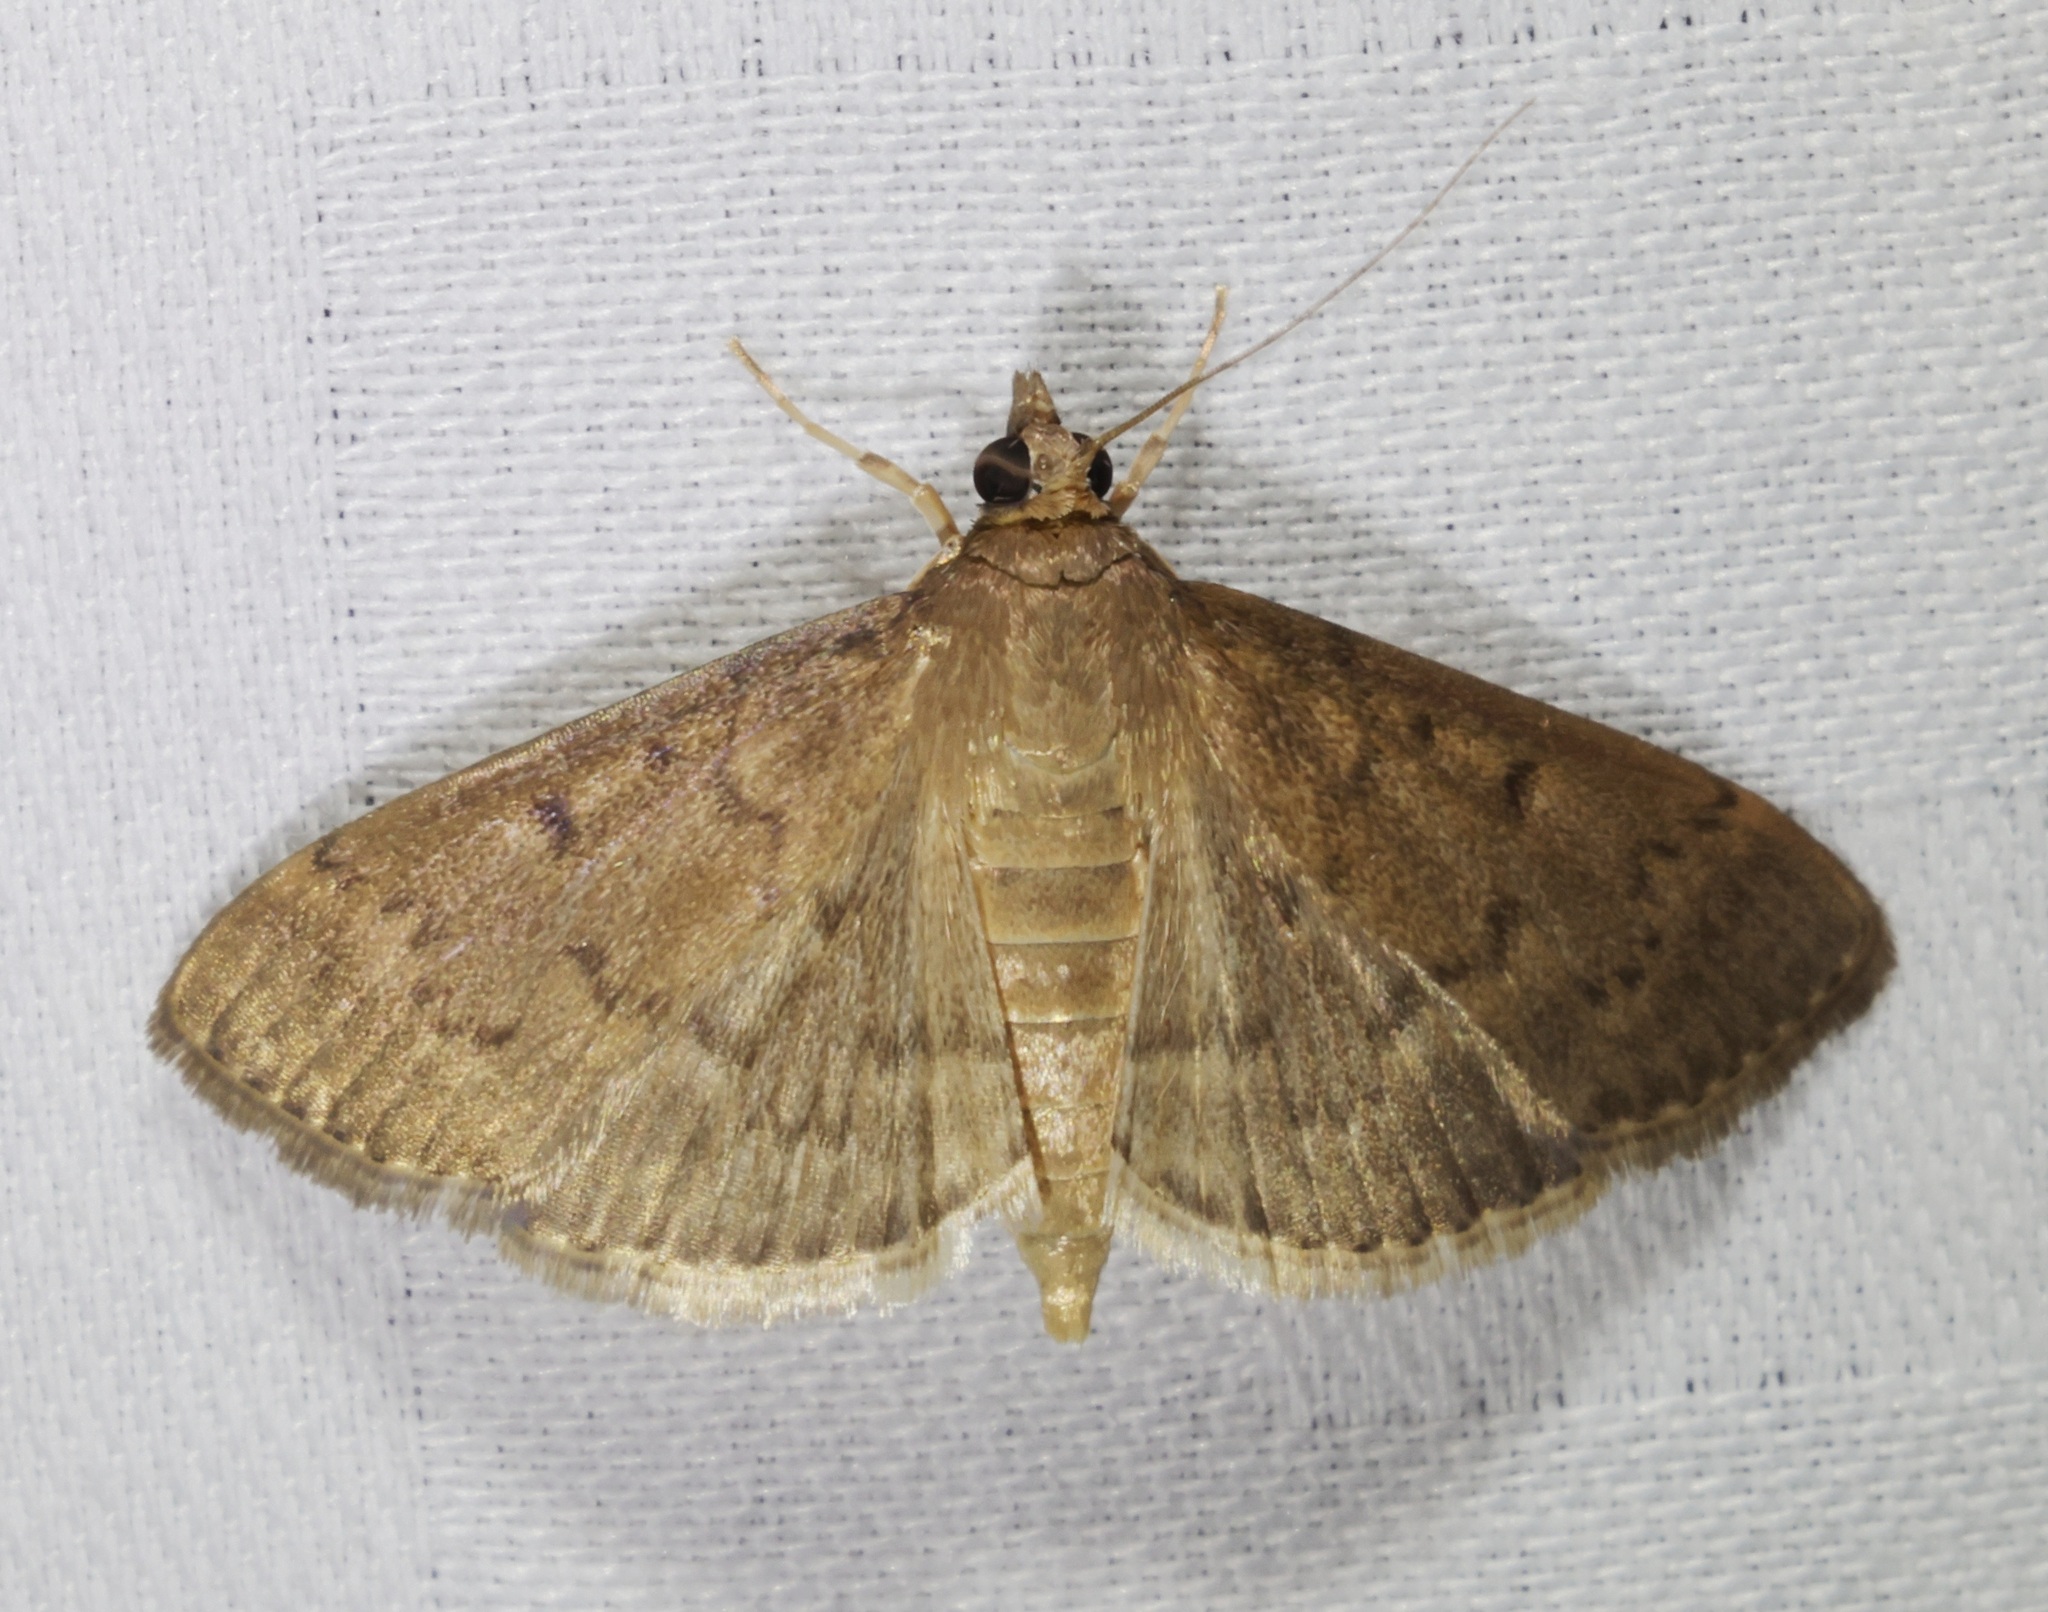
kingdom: Animalia
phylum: Arthropoda
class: Insecta
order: Lepidoptera
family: Crambidae
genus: Herpetogramma
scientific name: Herpetogramma licarsisalis
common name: Grass webworm
